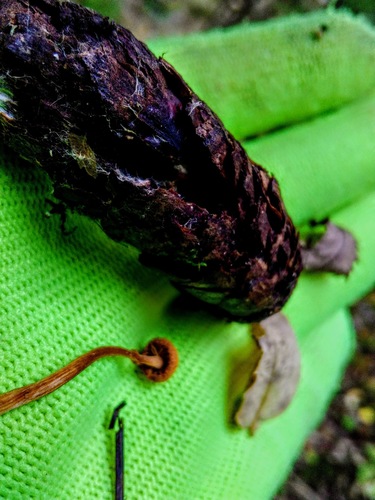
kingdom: Fungi
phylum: Basidiomycota
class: Agaricomycetes
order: Agaricales
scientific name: Agaricales
